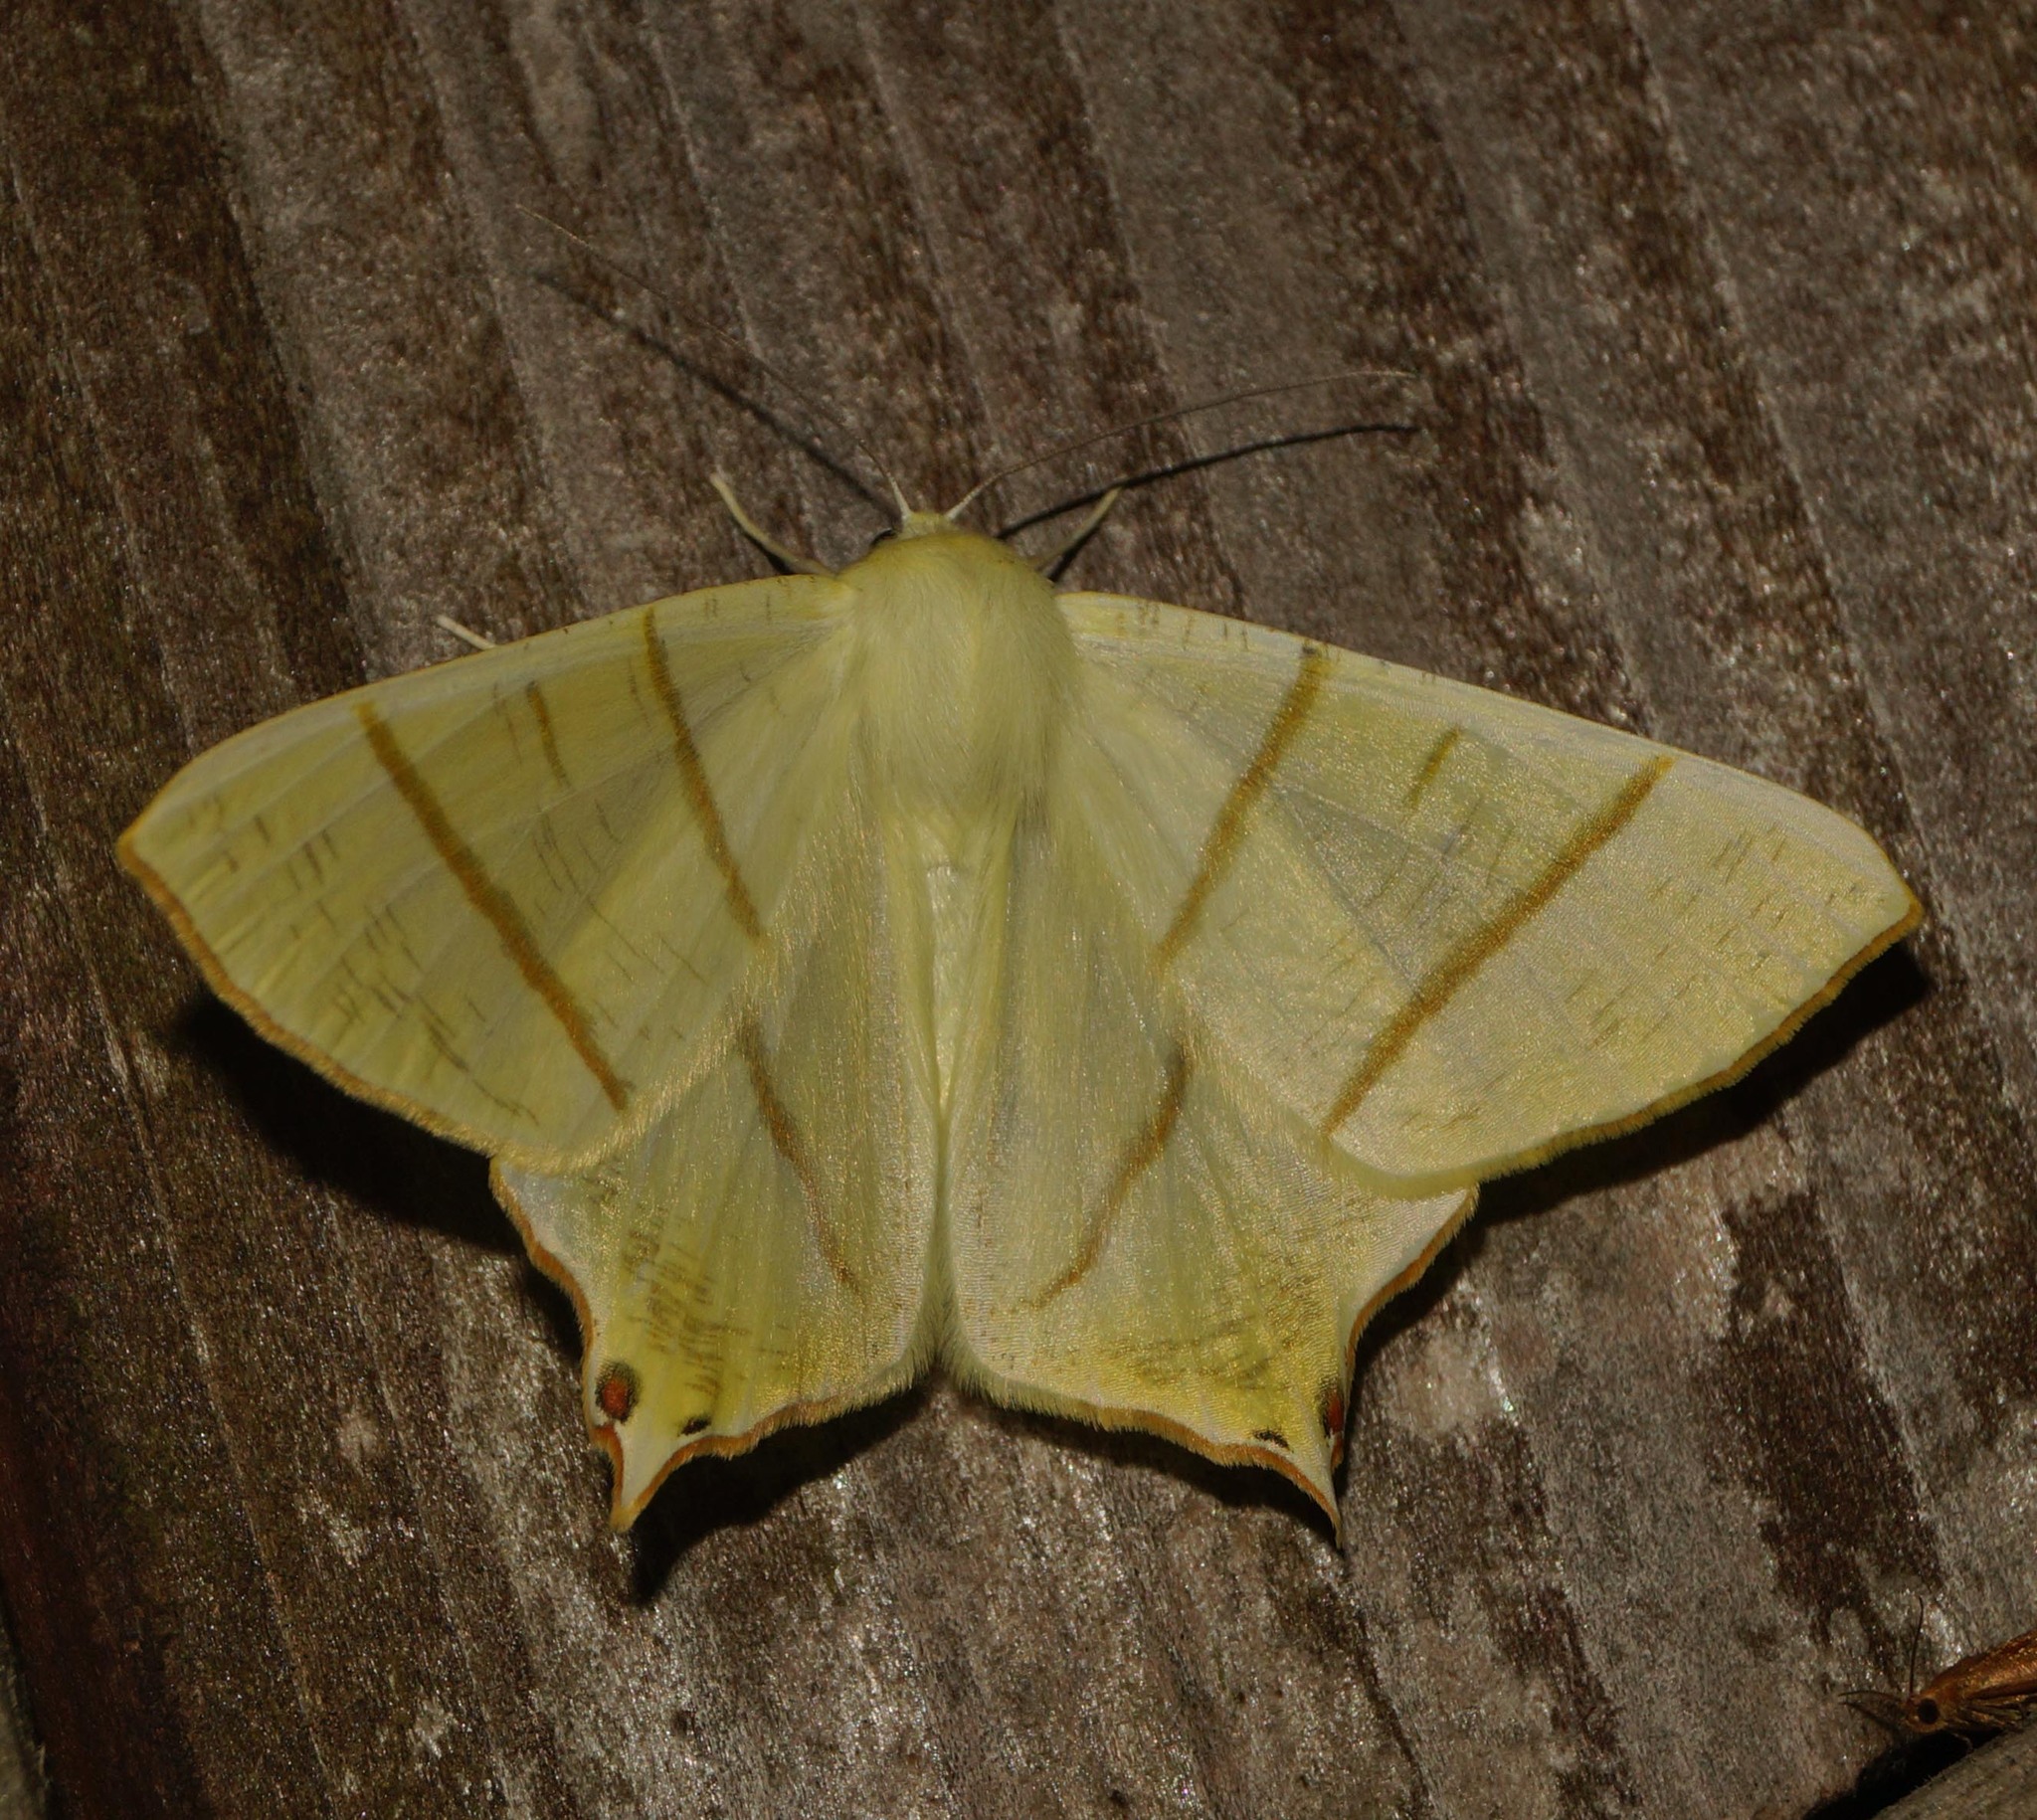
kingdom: Animalia
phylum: Arthropoda
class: Insecta
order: Lepidoptera
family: Geometridae
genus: Ourapteryx
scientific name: Ourapteryx sambucaria
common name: Swallow-tailed moth
